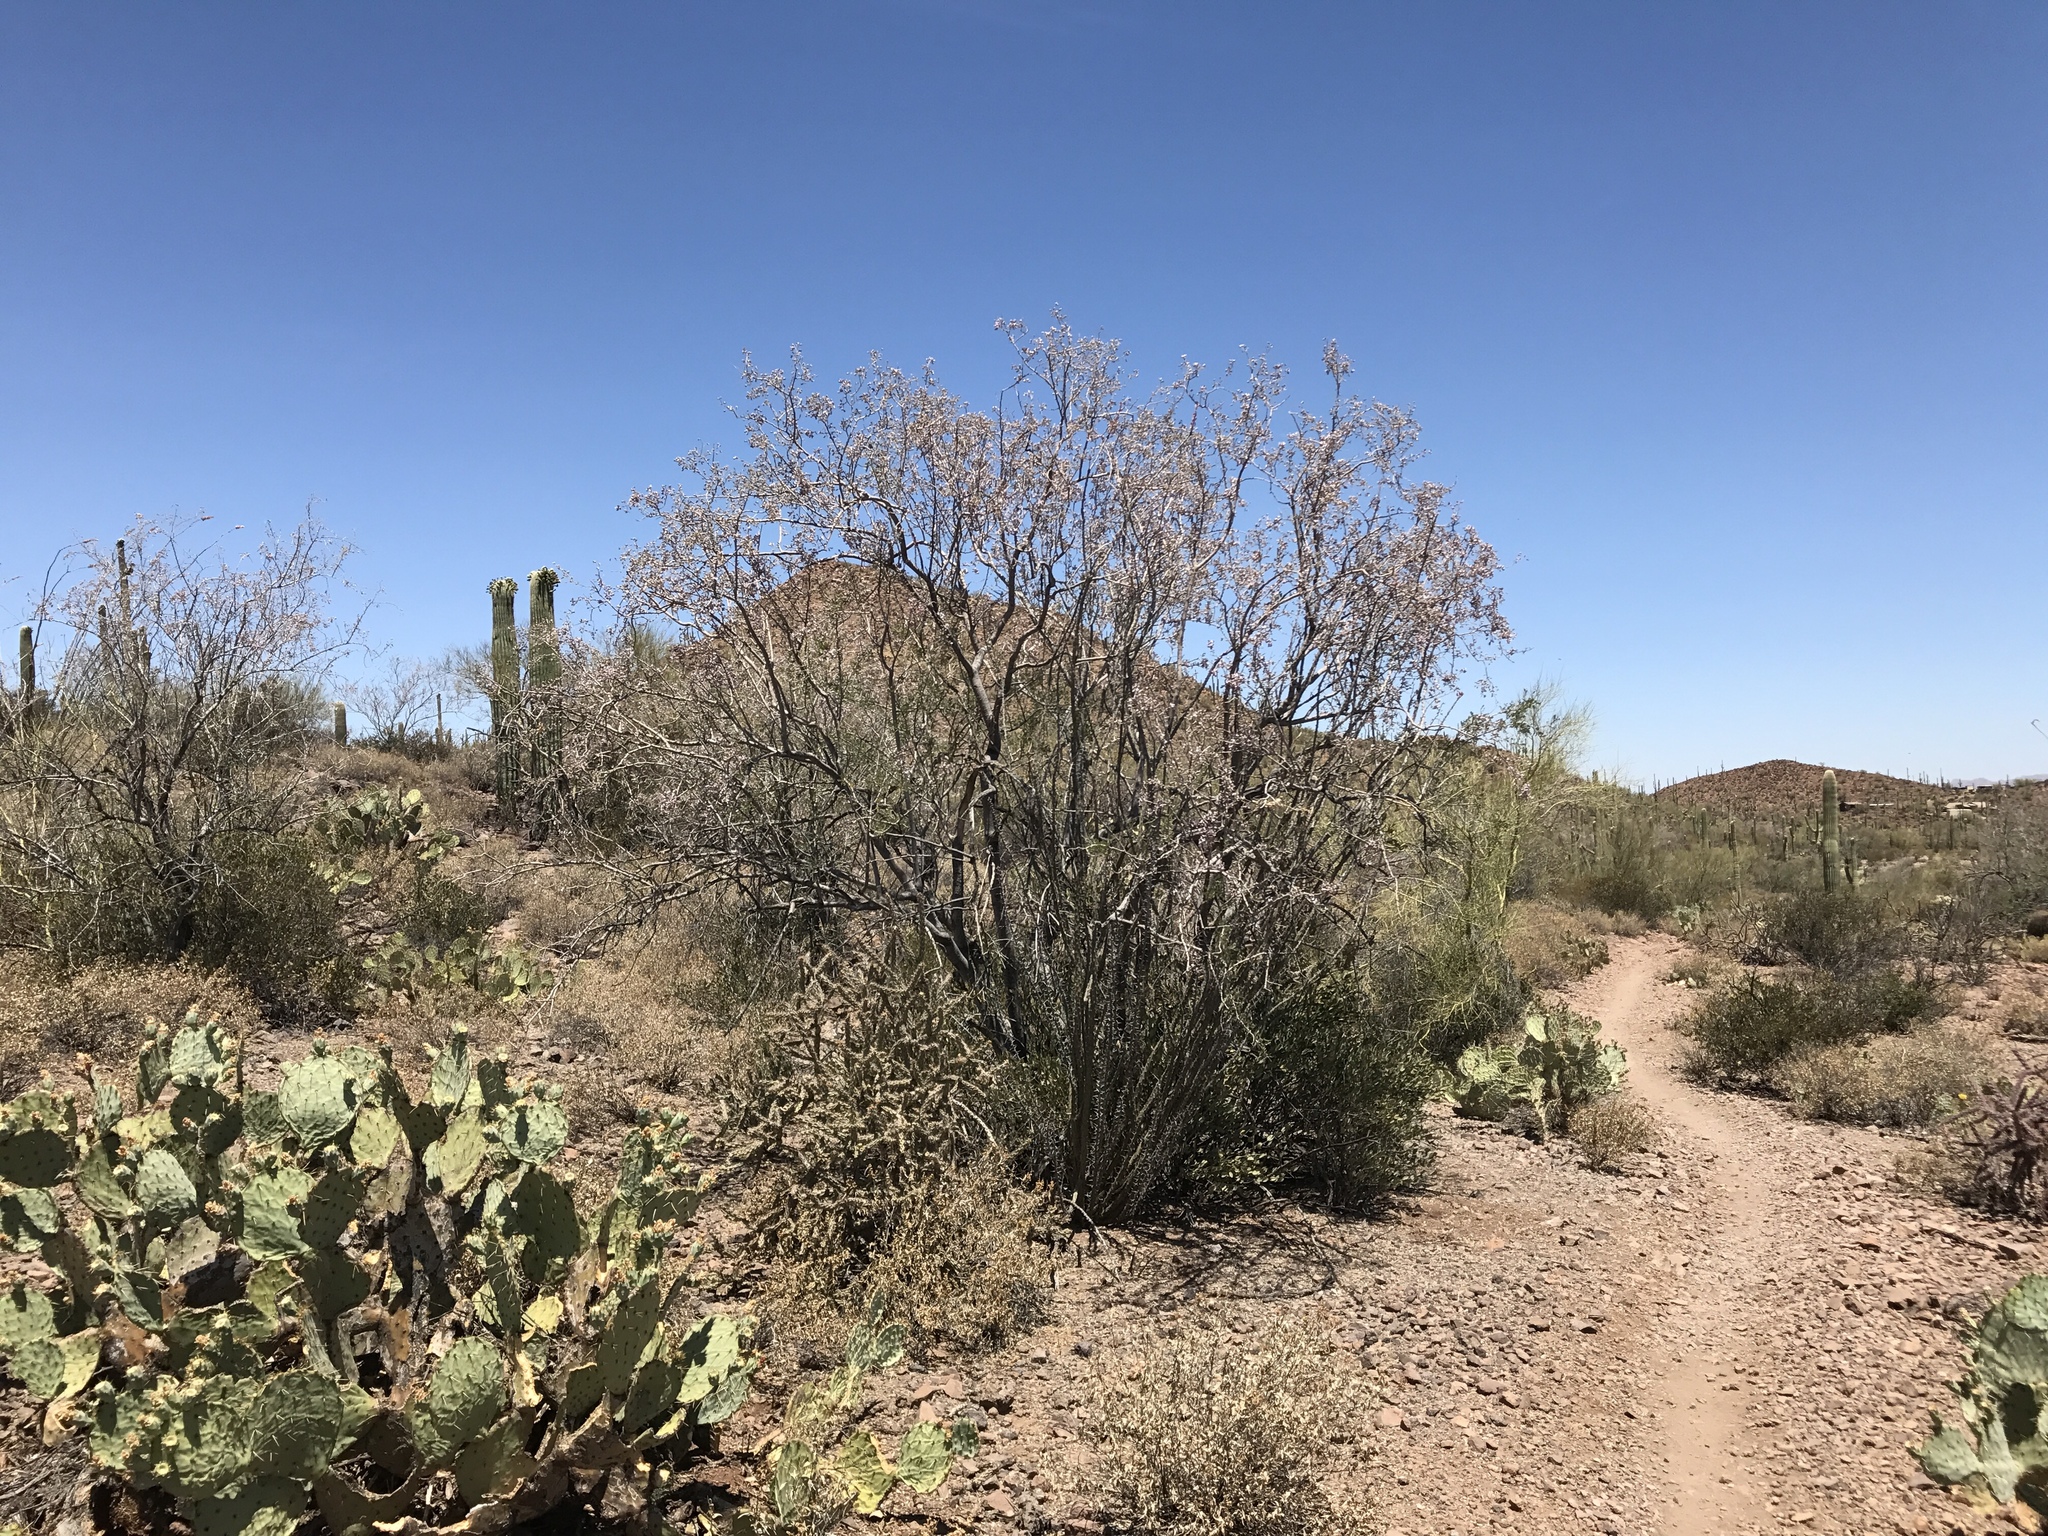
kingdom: Plantae
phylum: Tracheophyta
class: Magnoliopsida
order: Fabales
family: Fabaceae
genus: Olneya
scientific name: Olneya tesota
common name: Desert ironwood
